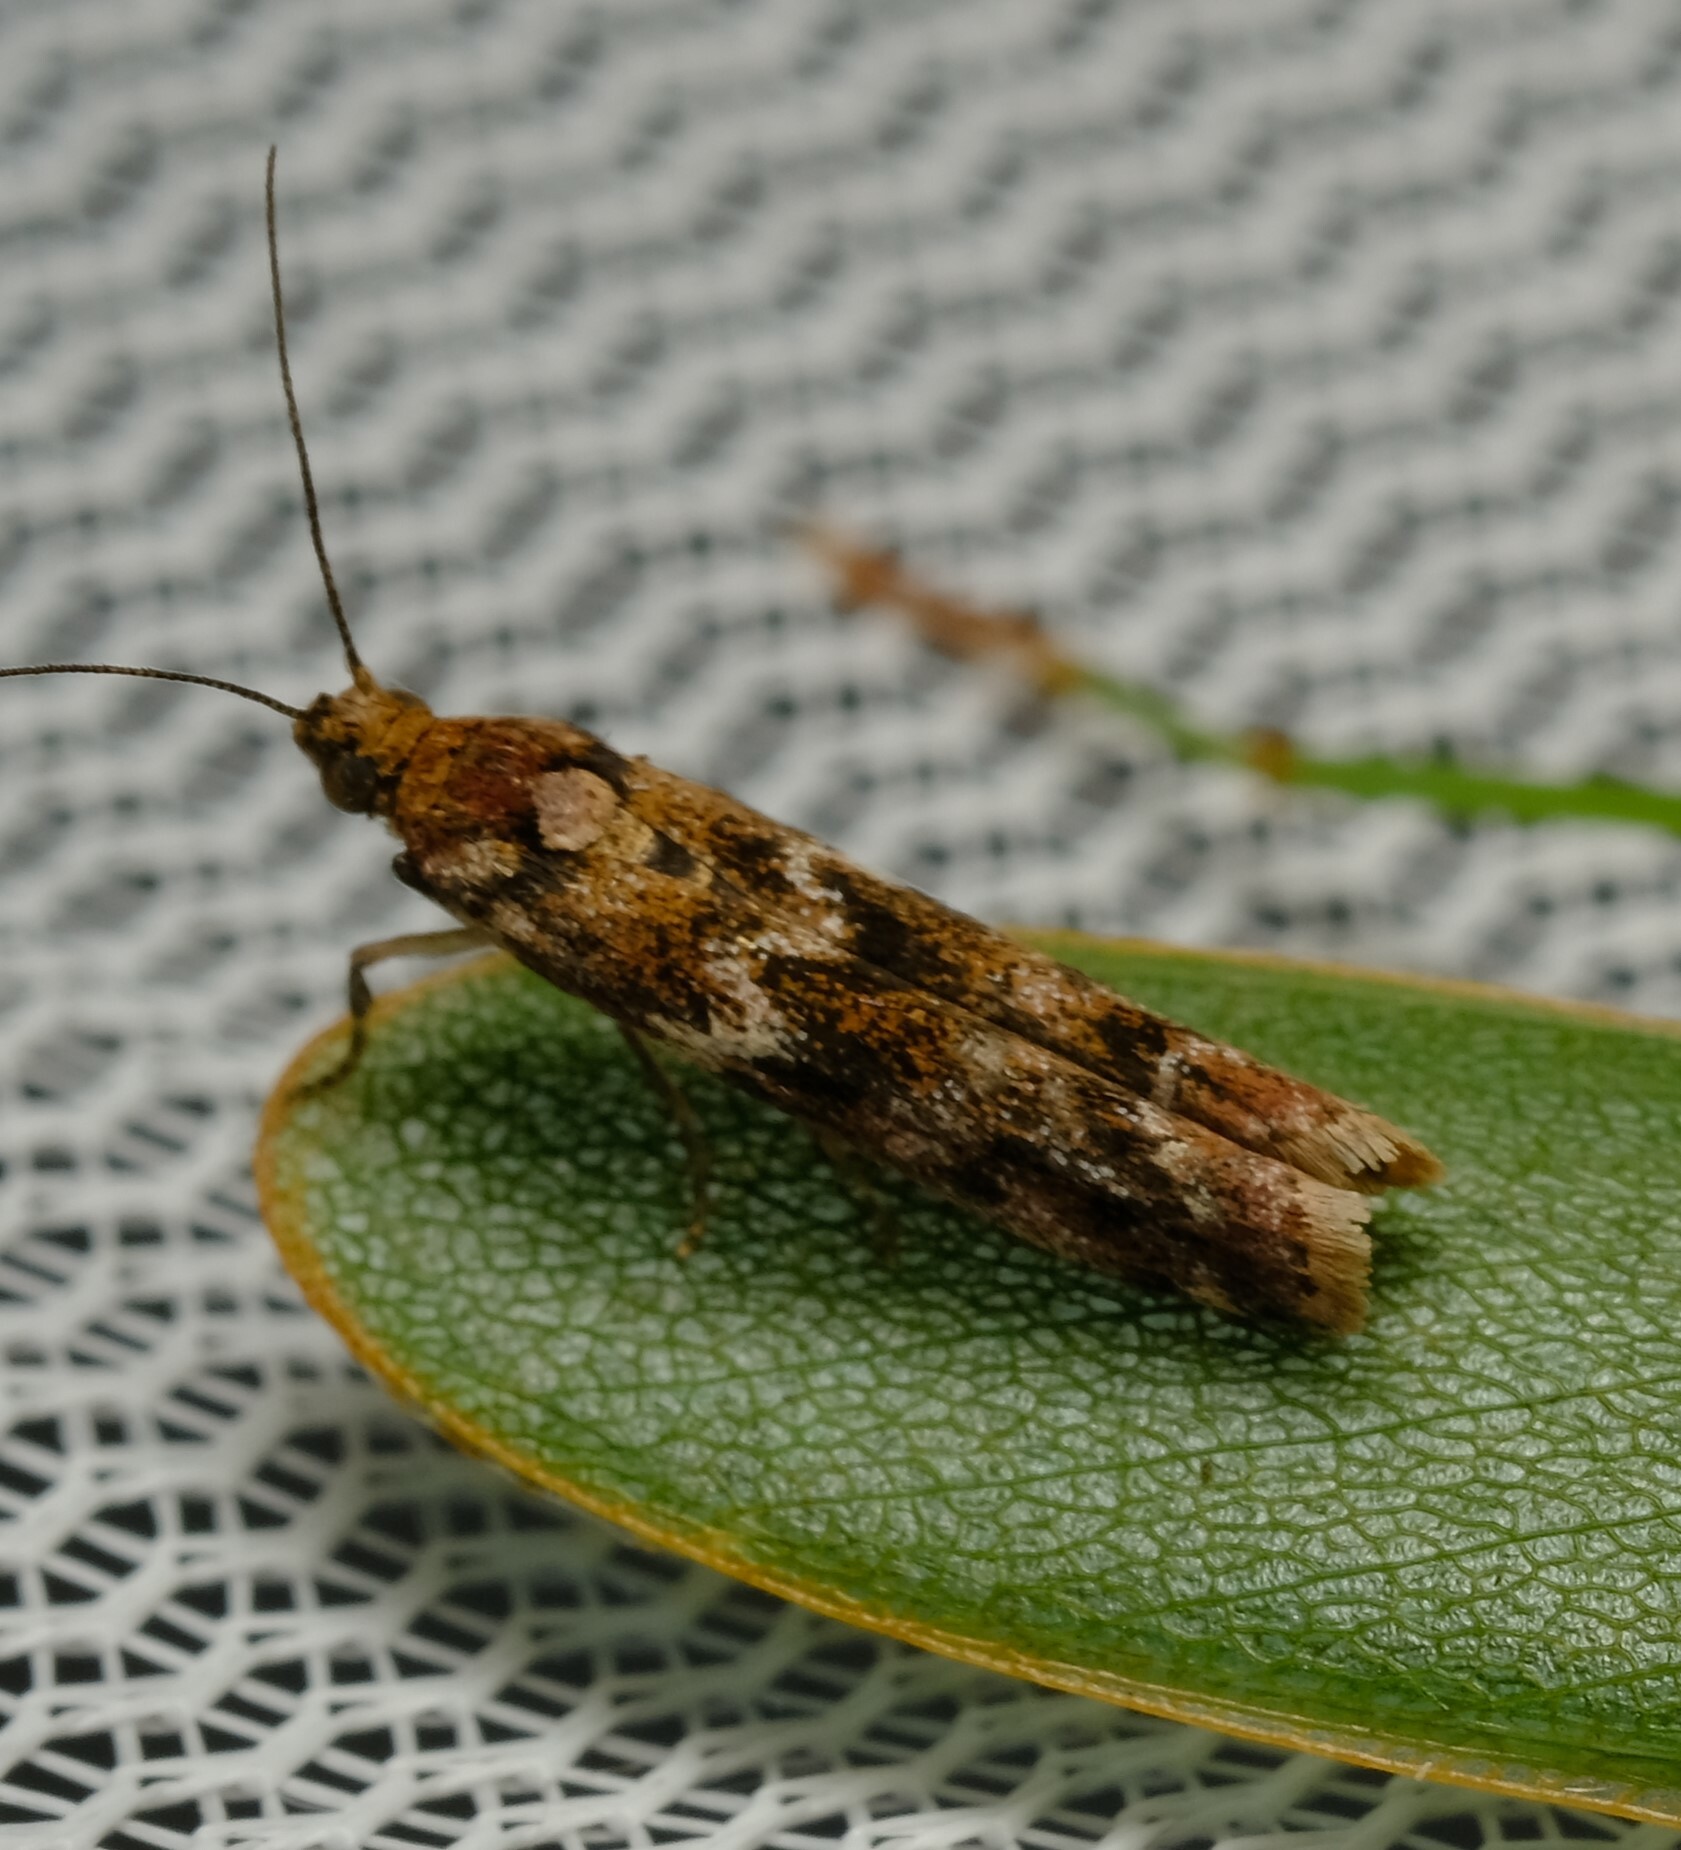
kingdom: Animalia
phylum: Arthropoda
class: Insecta
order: Lepidoptera
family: Pyralidae
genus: Ephestiopsis
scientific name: Ephestiopsis oenobarella
